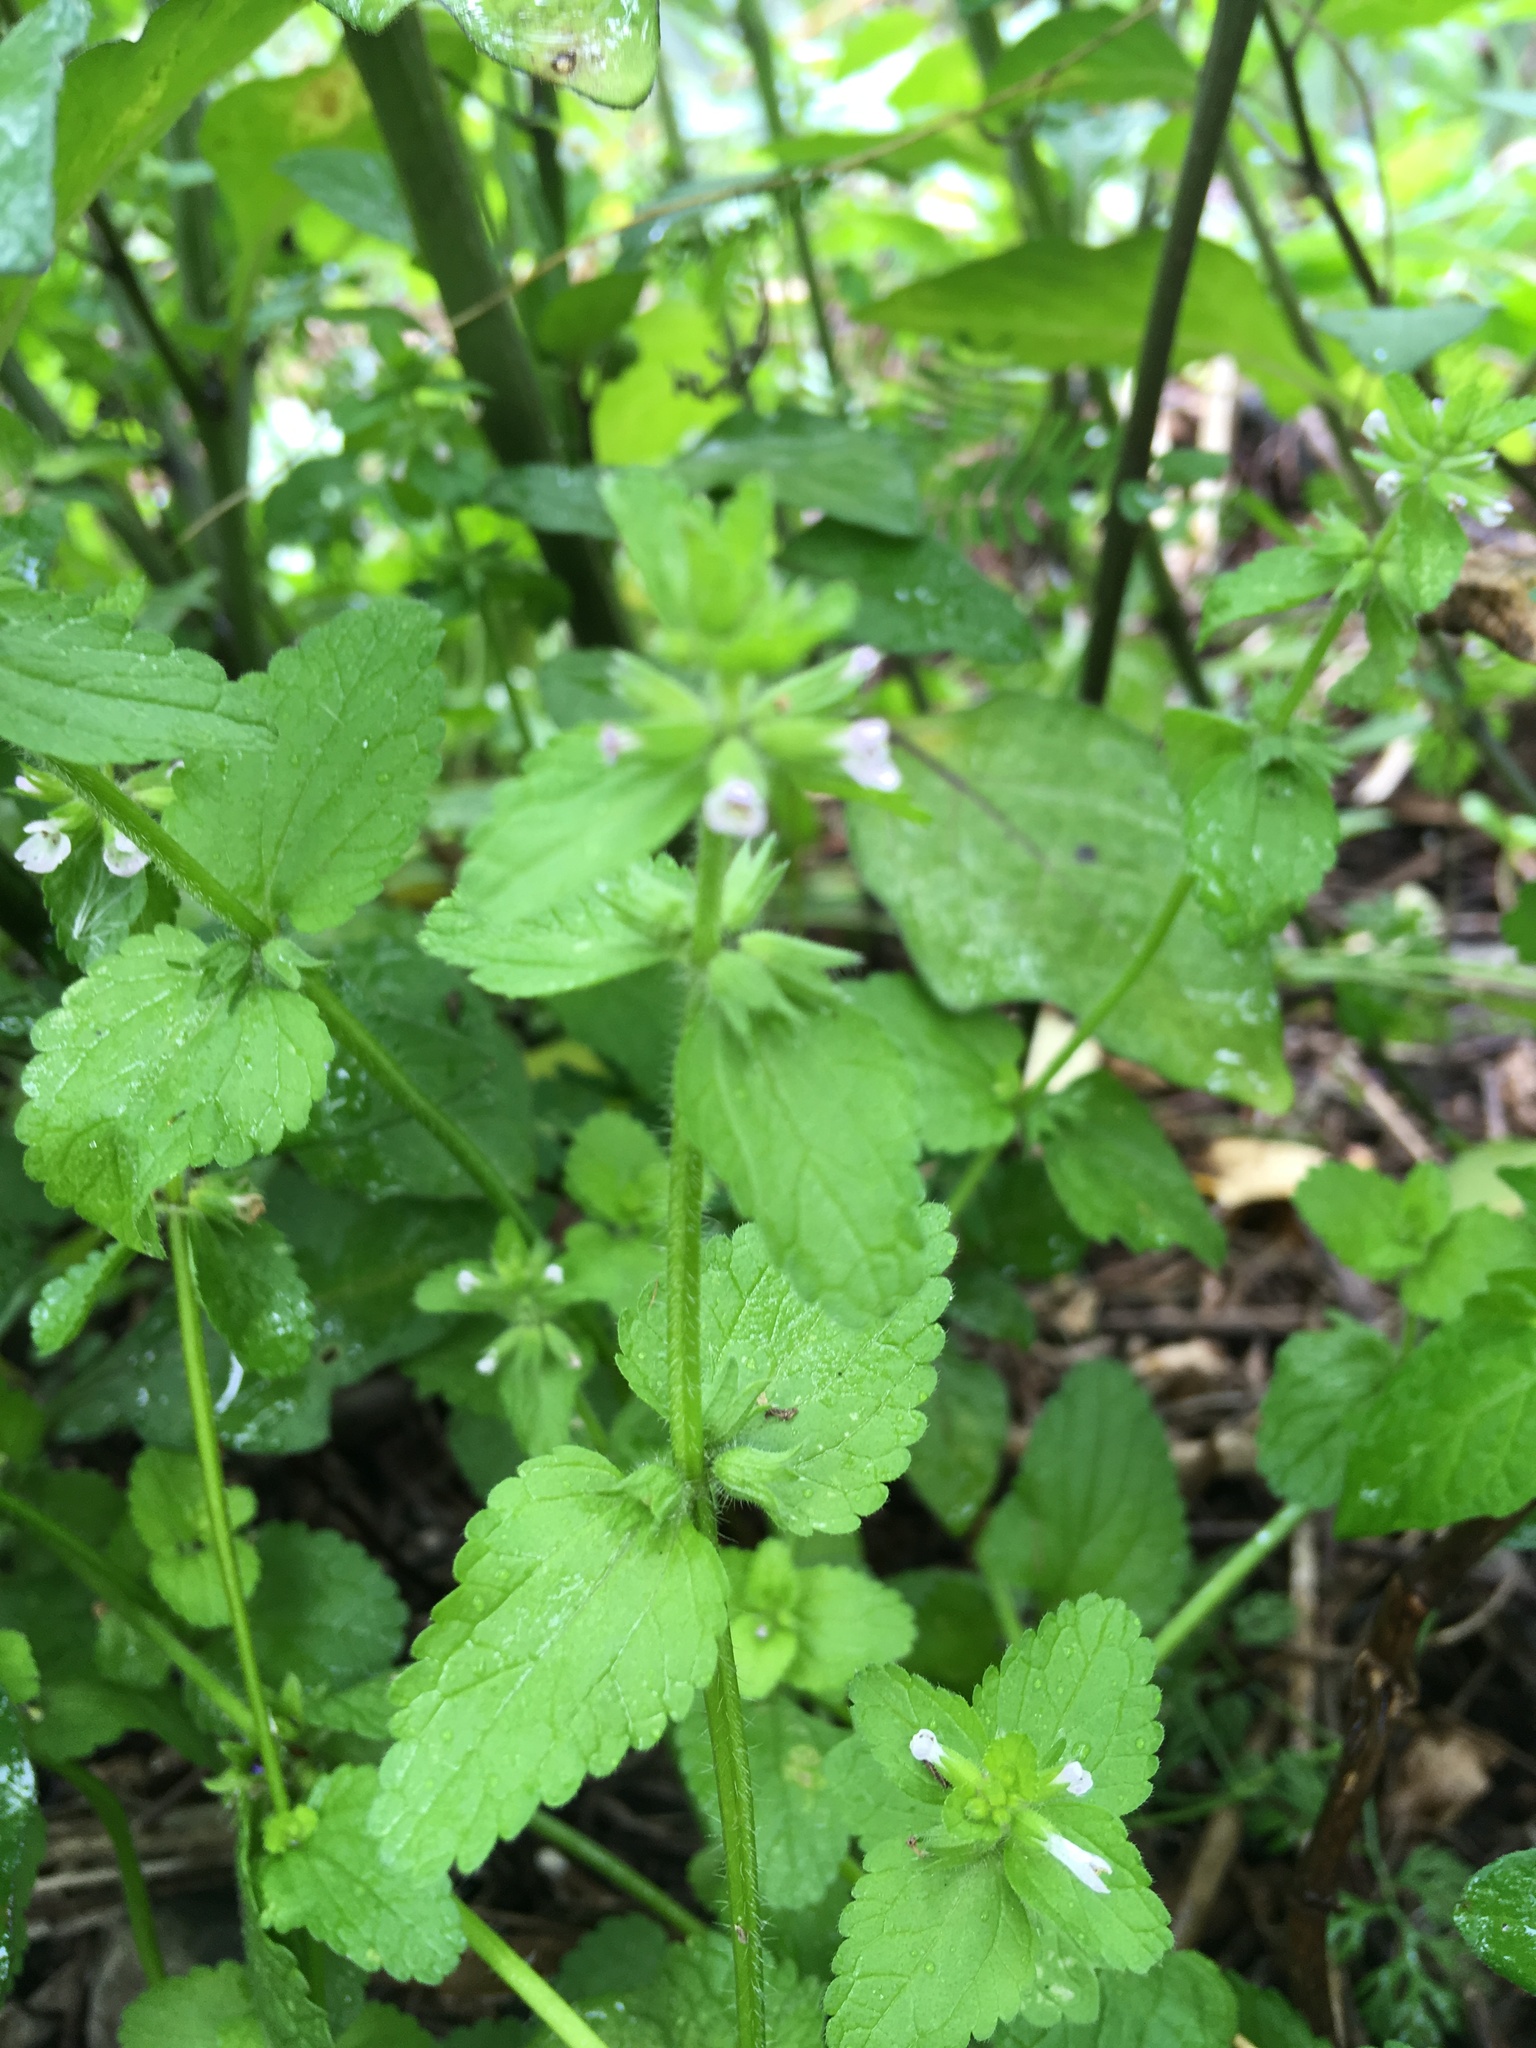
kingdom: Plantae
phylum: Tracheophyta
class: Magnoliopsida
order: Lamiales
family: Lamiaceae
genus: Stachys
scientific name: Stachys arvensis
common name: Field woundwort
